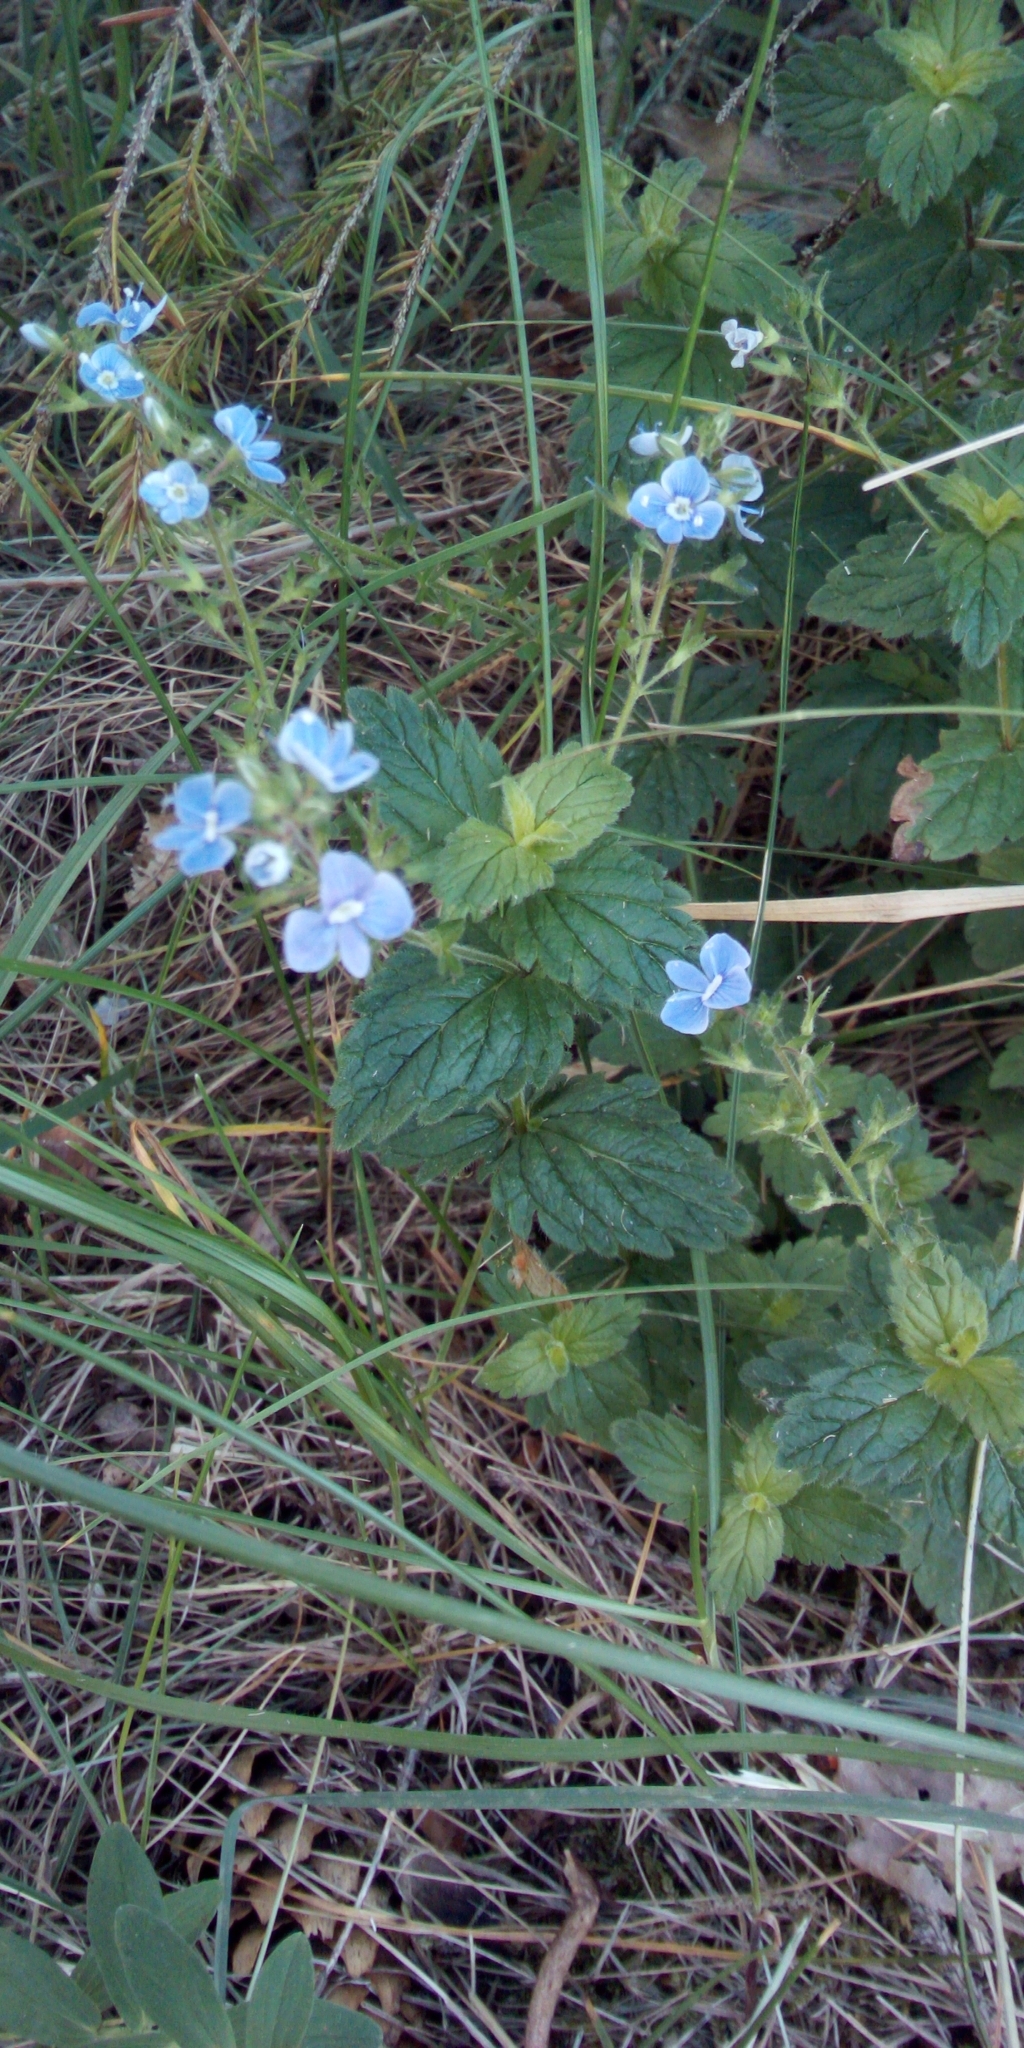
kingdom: Plantae
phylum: Tracheophyta
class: Magnoliopsida
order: Lamiales
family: Plantaginaceae
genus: Veronica
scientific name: Veronica chamaedrys
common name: Germander speedwell
